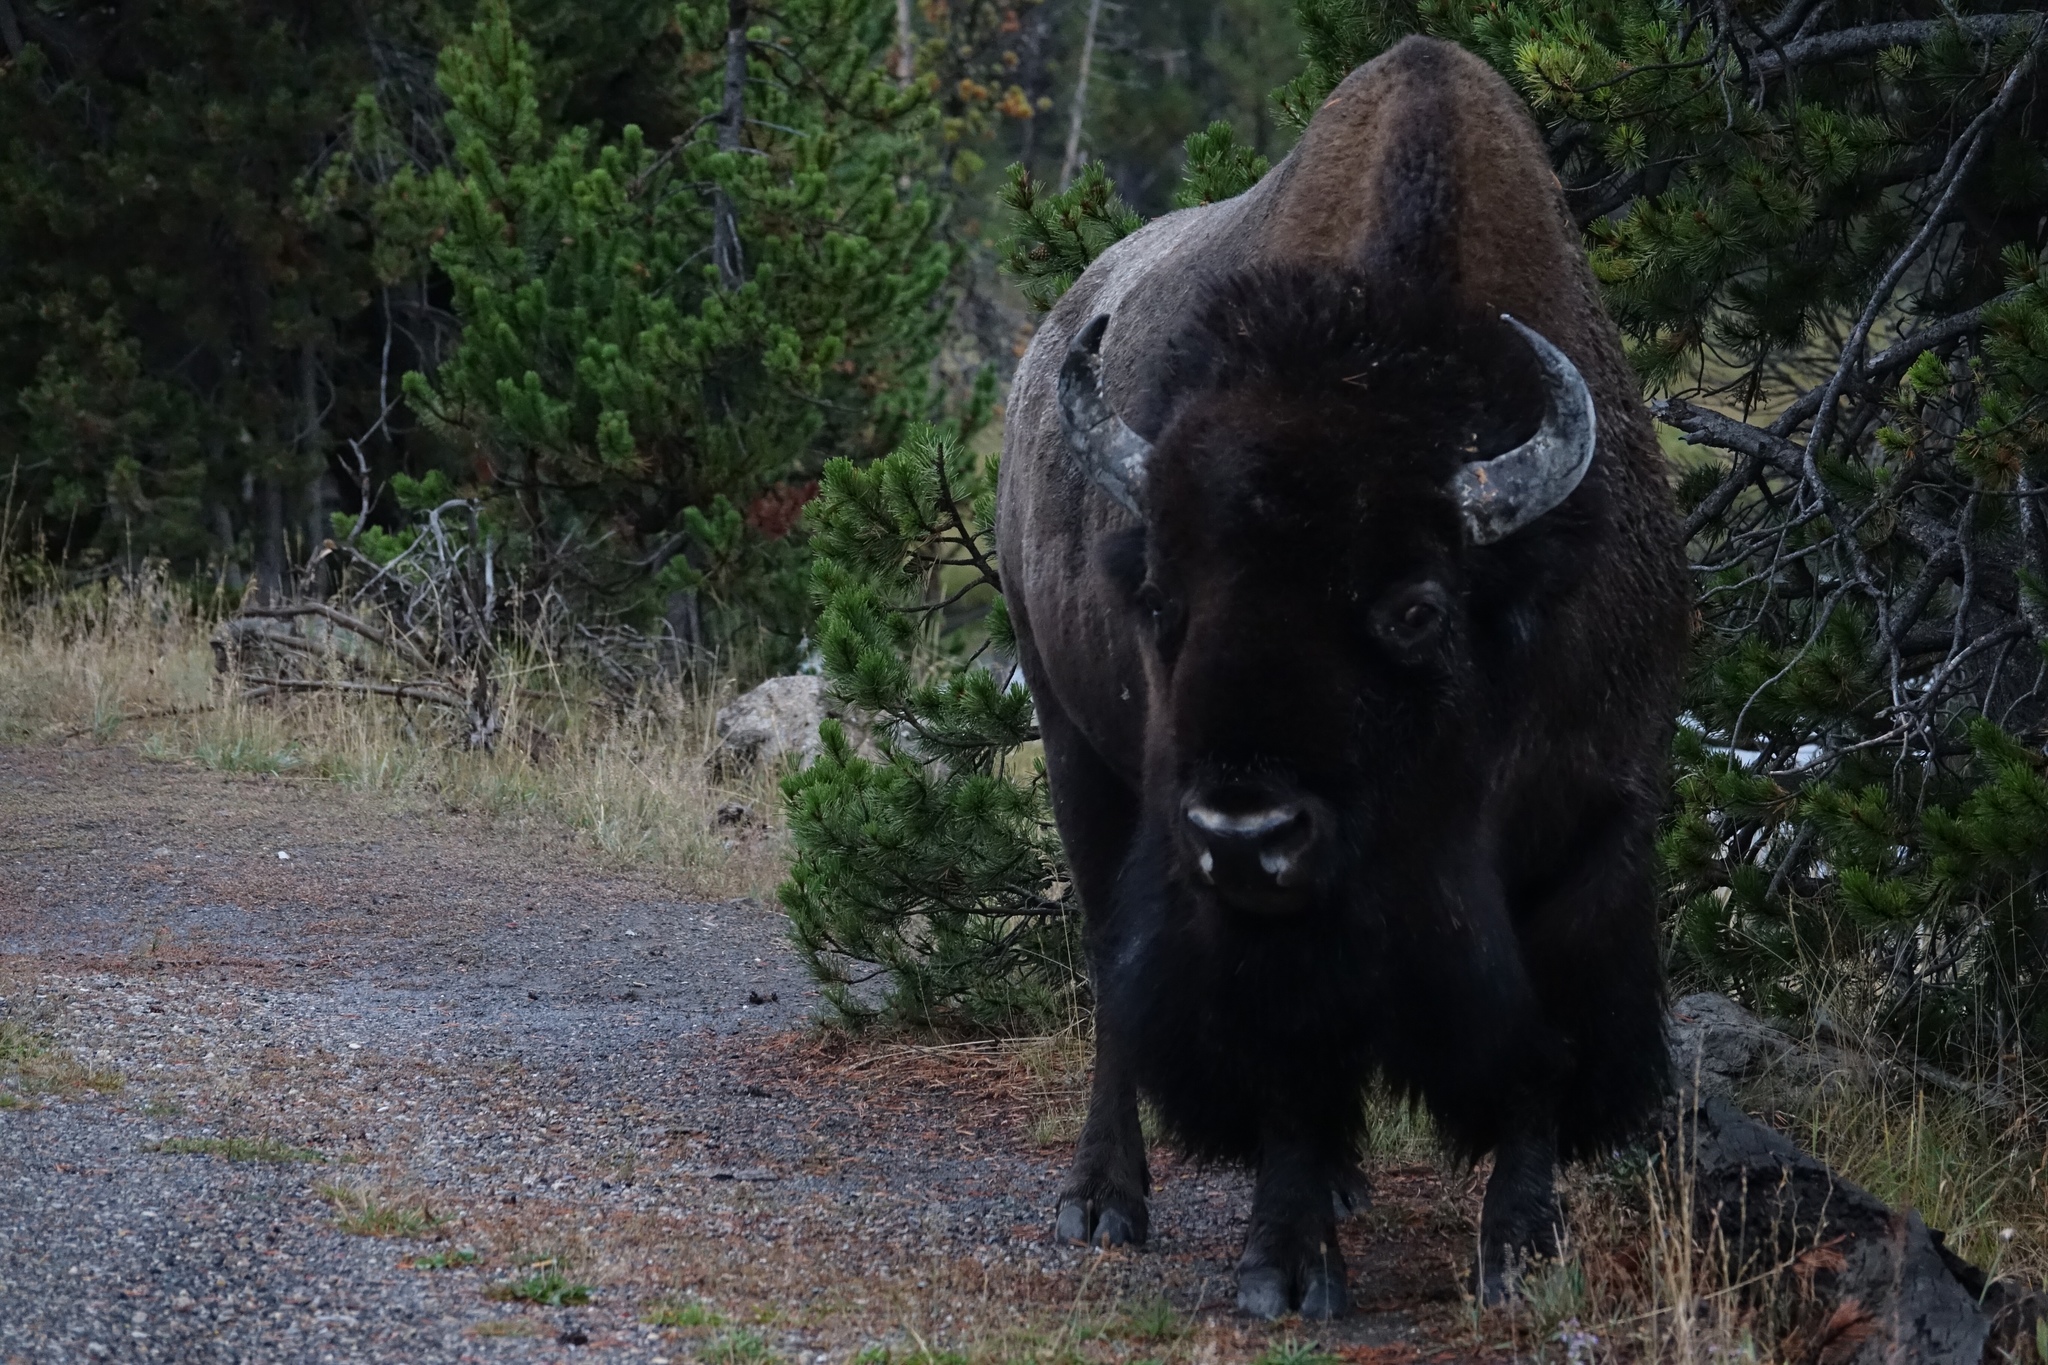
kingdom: Animalia
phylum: Chordata
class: Mammalia
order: Artiodactyla
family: Bovidae
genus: Bison
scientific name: Bison bison
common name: American bison
